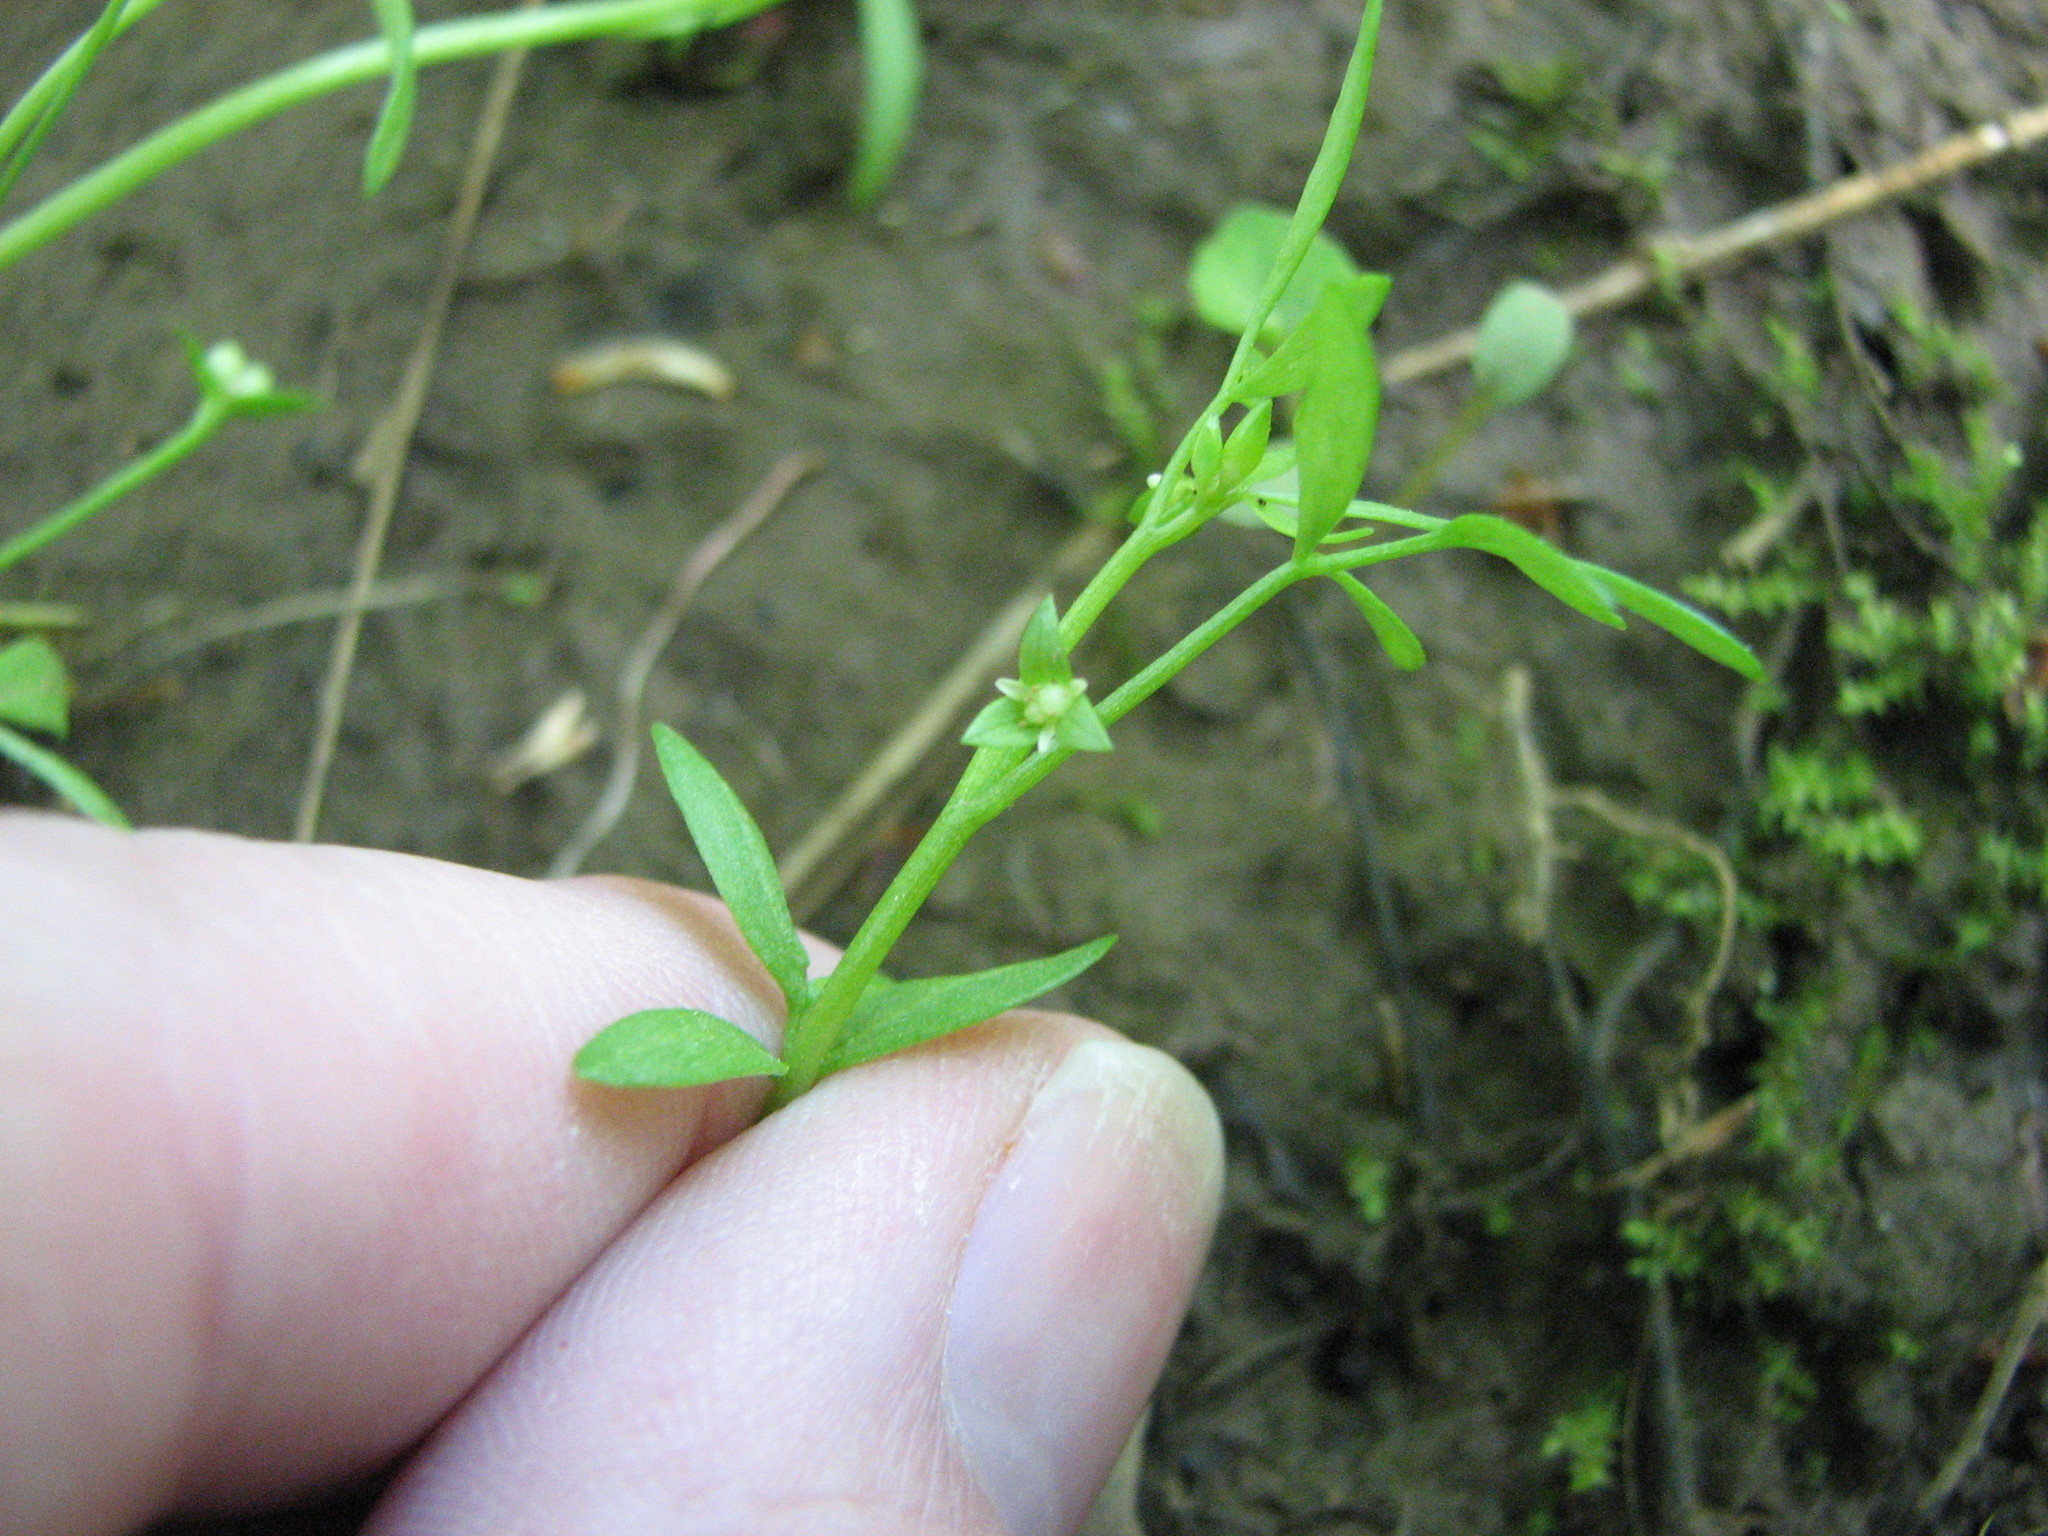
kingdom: Plantae
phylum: Tracheophyta
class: Magnoliopsida
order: Brassicales
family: Limnanthaceae
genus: Floerkea
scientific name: Floerkea proserpinacoides
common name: False mermaid
